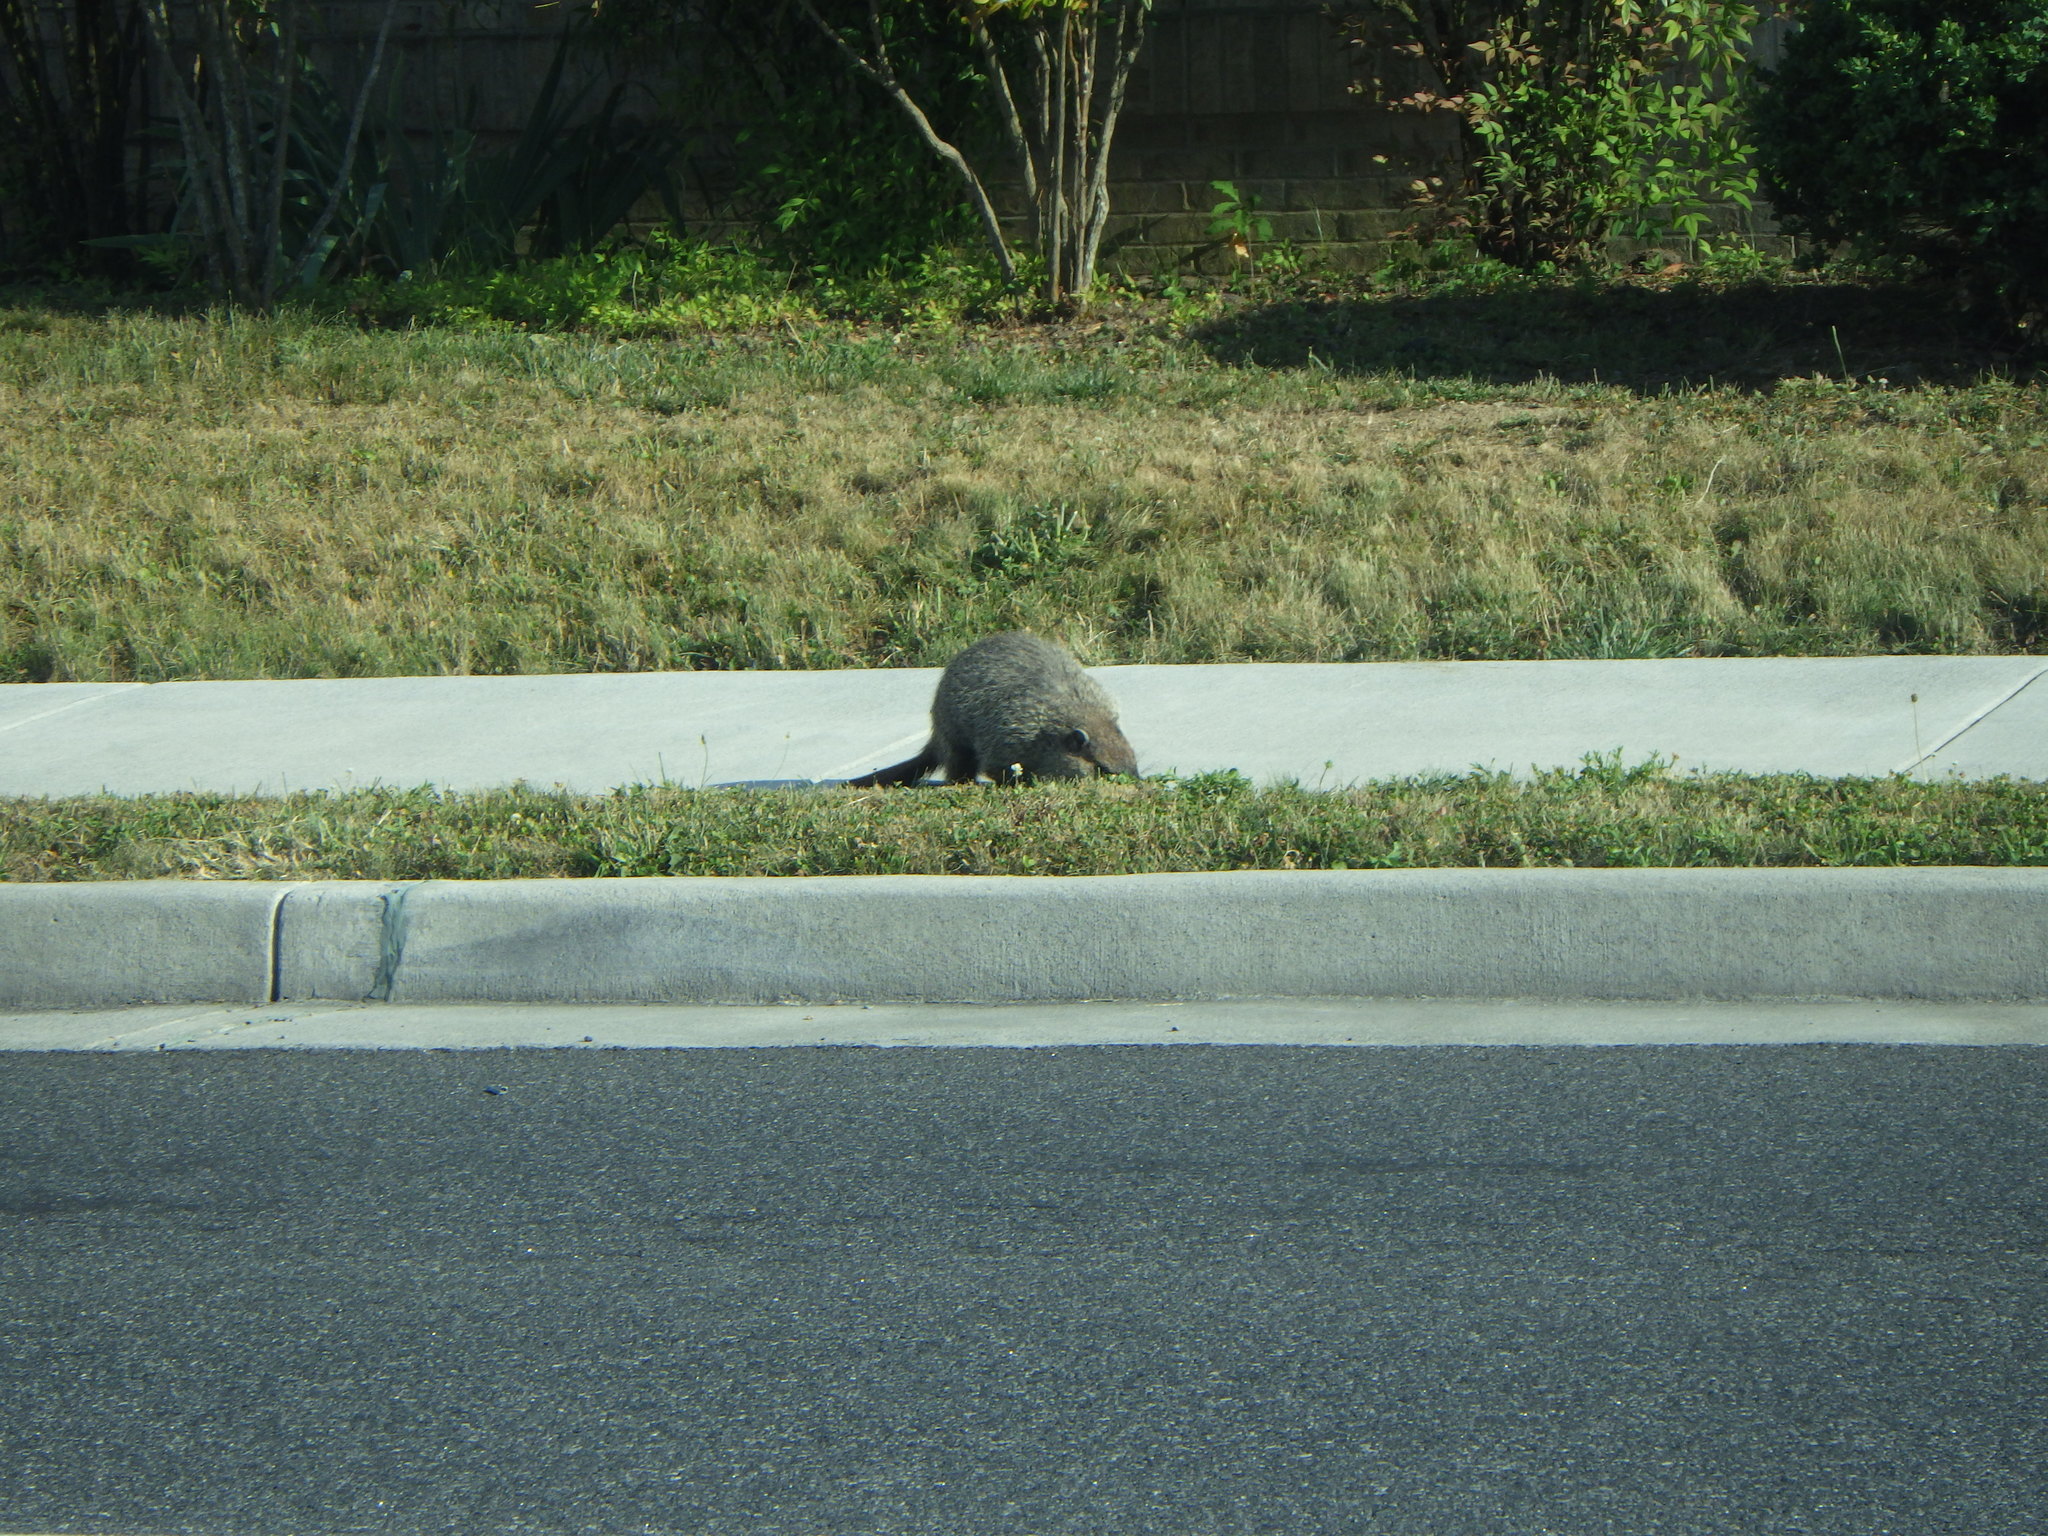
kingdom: Animalia
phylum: Chordata
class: Mammalia
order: Rodentia
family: Sciuridae
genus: Marmota
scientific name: Marmota monax
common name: Groundhog
